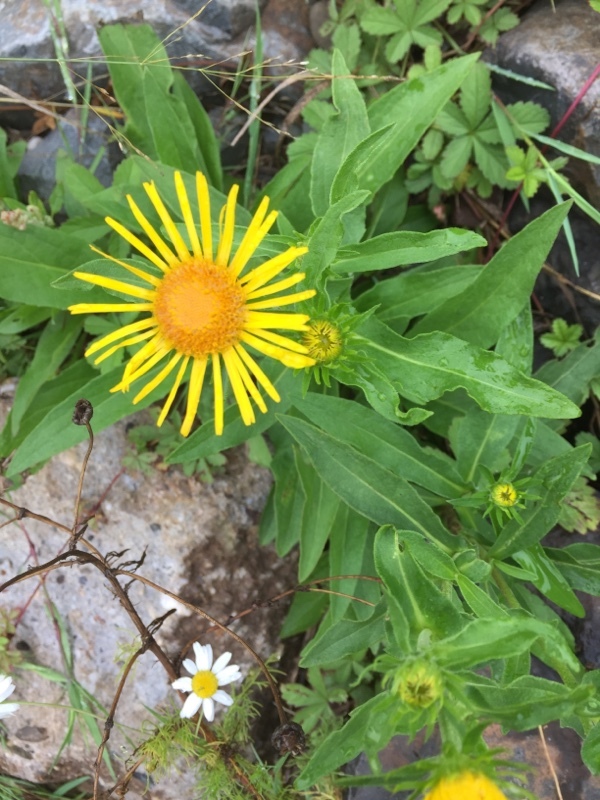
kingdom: Plantae
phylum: Tracheophyta
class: Magnoliopsida
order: Asterales
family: Asteraceae
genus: Pentanema
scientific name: Pentanema britannicum
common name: British elecampane
